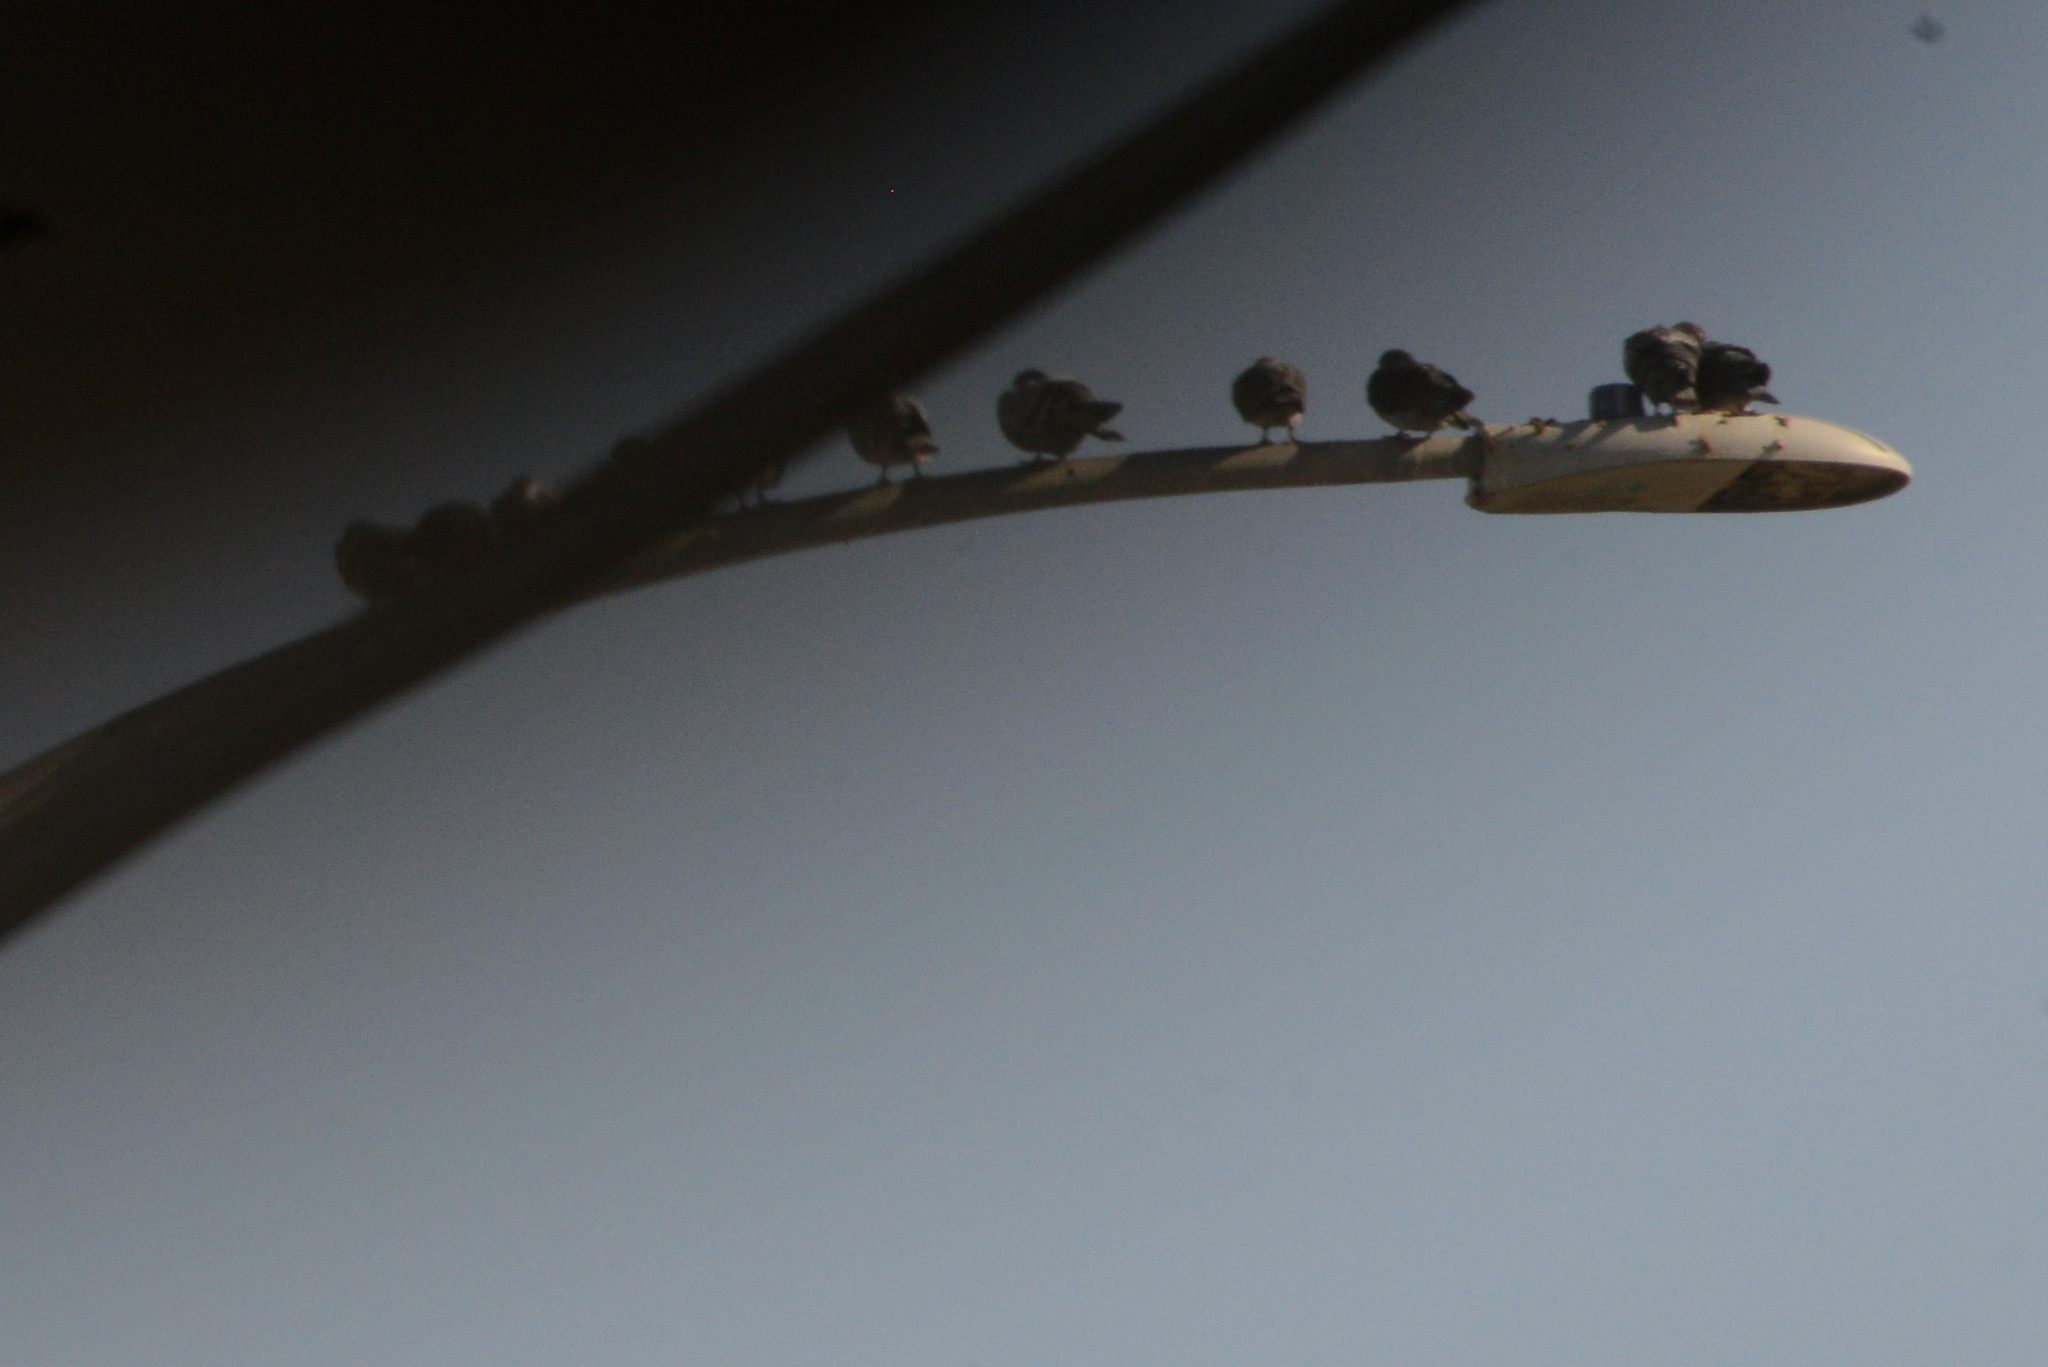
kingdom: Animalia
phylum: Chordata
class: Aves
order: Columbiformes
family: Columbidae
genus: Columba
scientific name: Columba livia
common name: Rock pigeon
